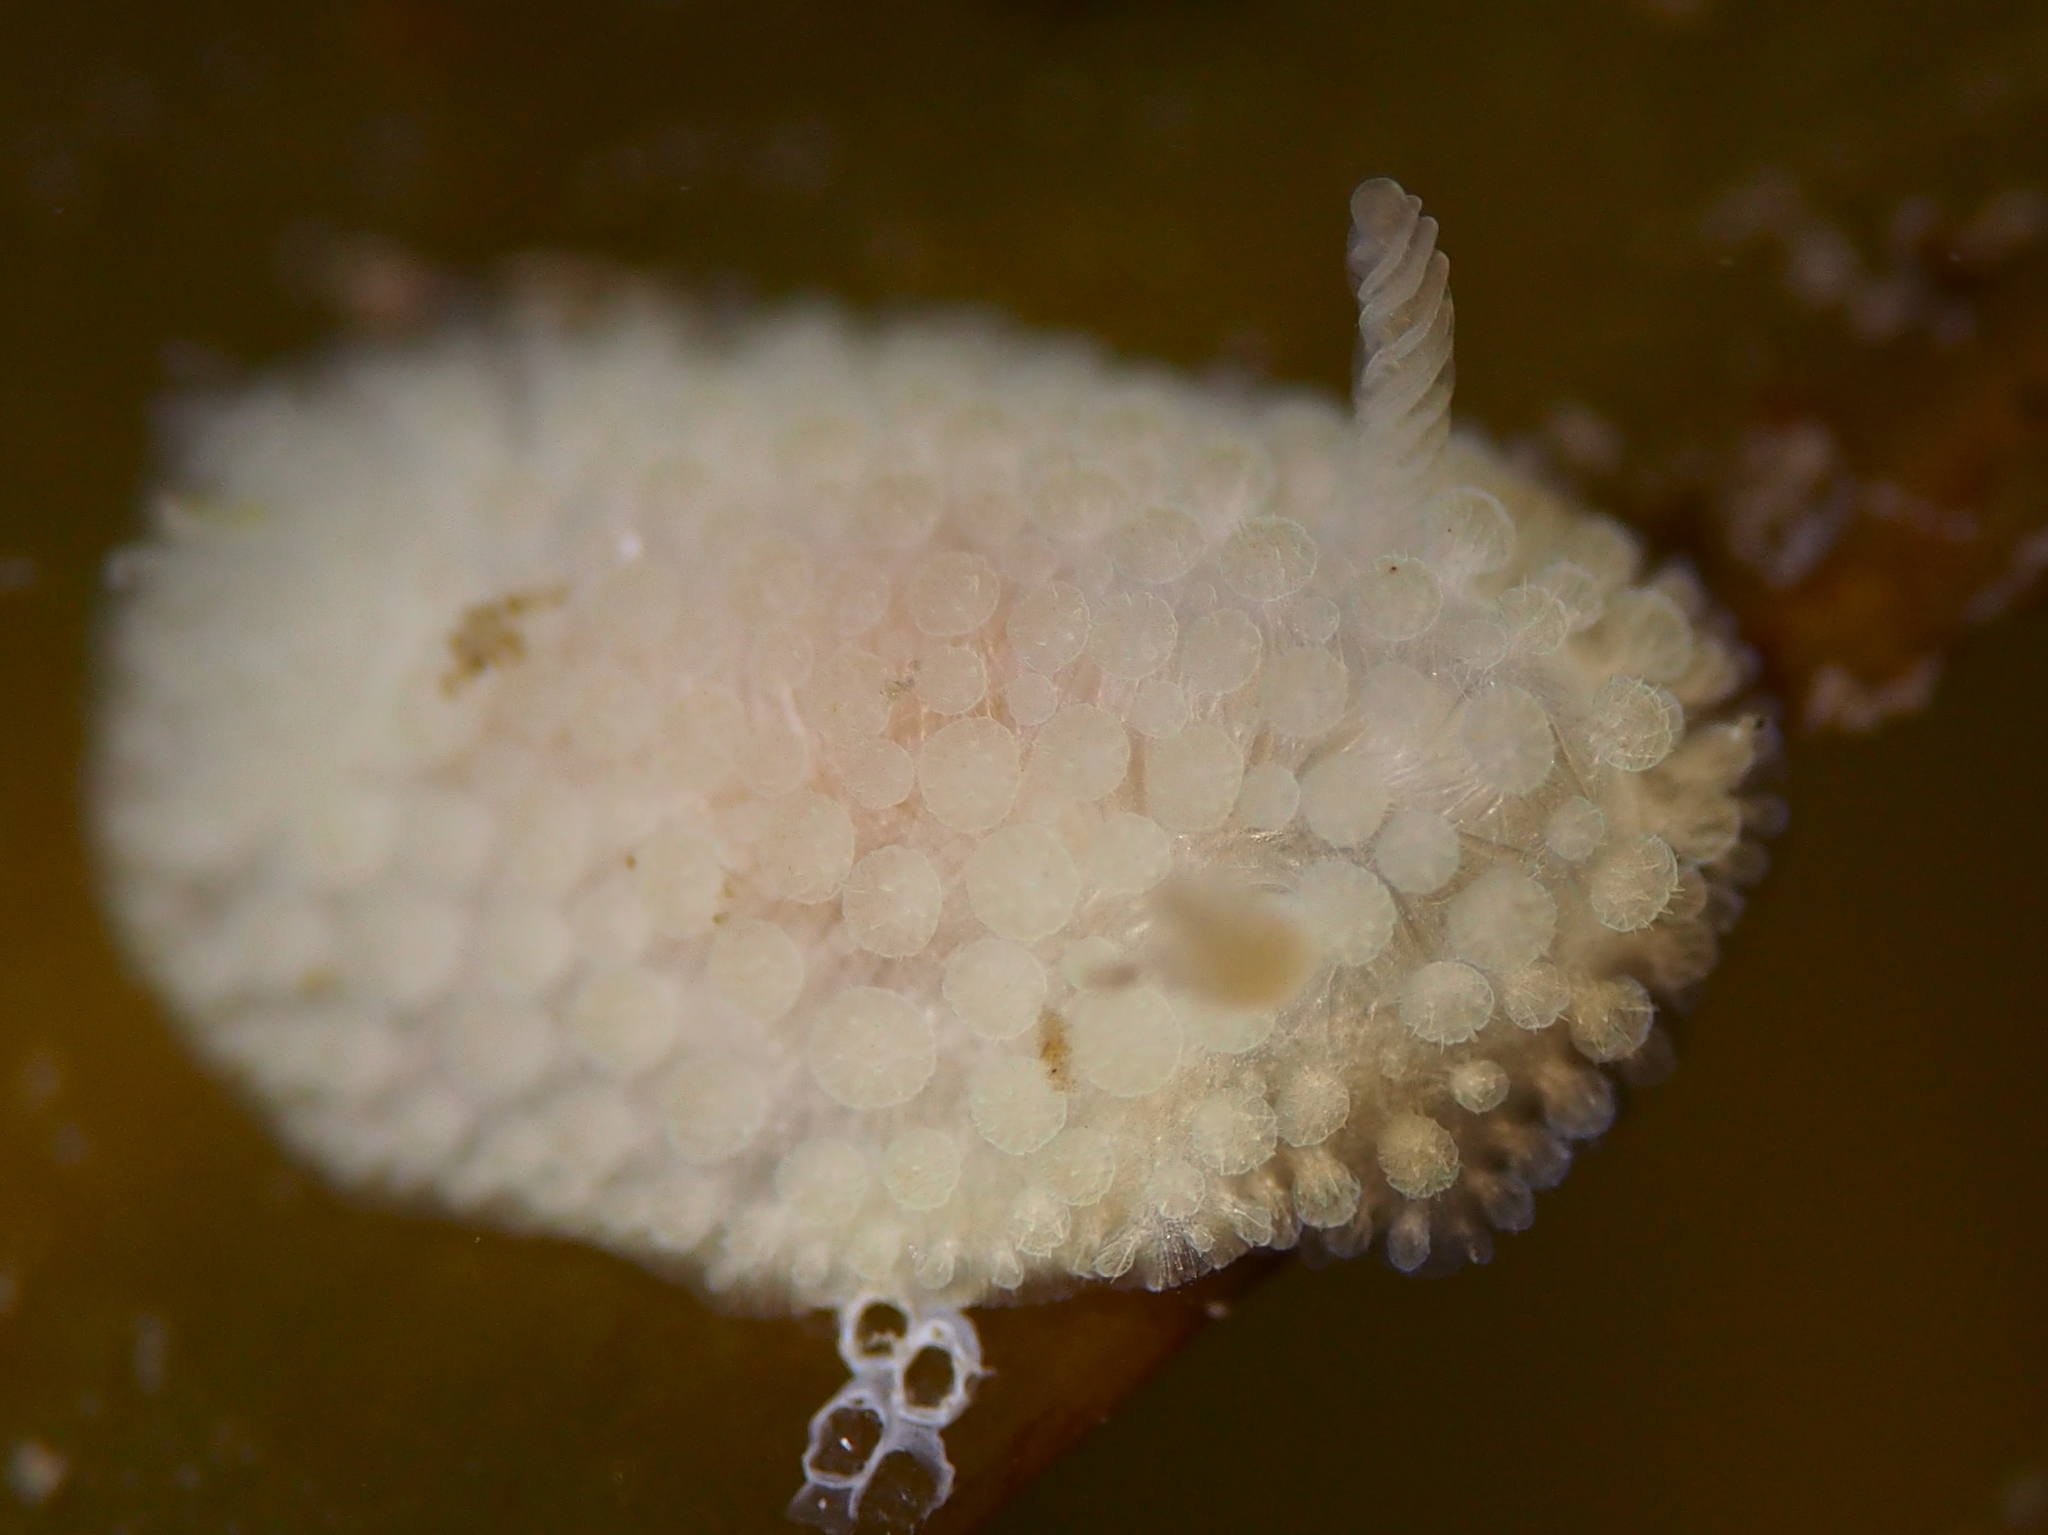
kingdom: Animalia
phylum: Mollusca
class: Gastropoda
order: Nudibranchia
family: Onchidorididae
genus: Onchidoris
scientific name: Onchidoris muricata
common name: Rough doris
